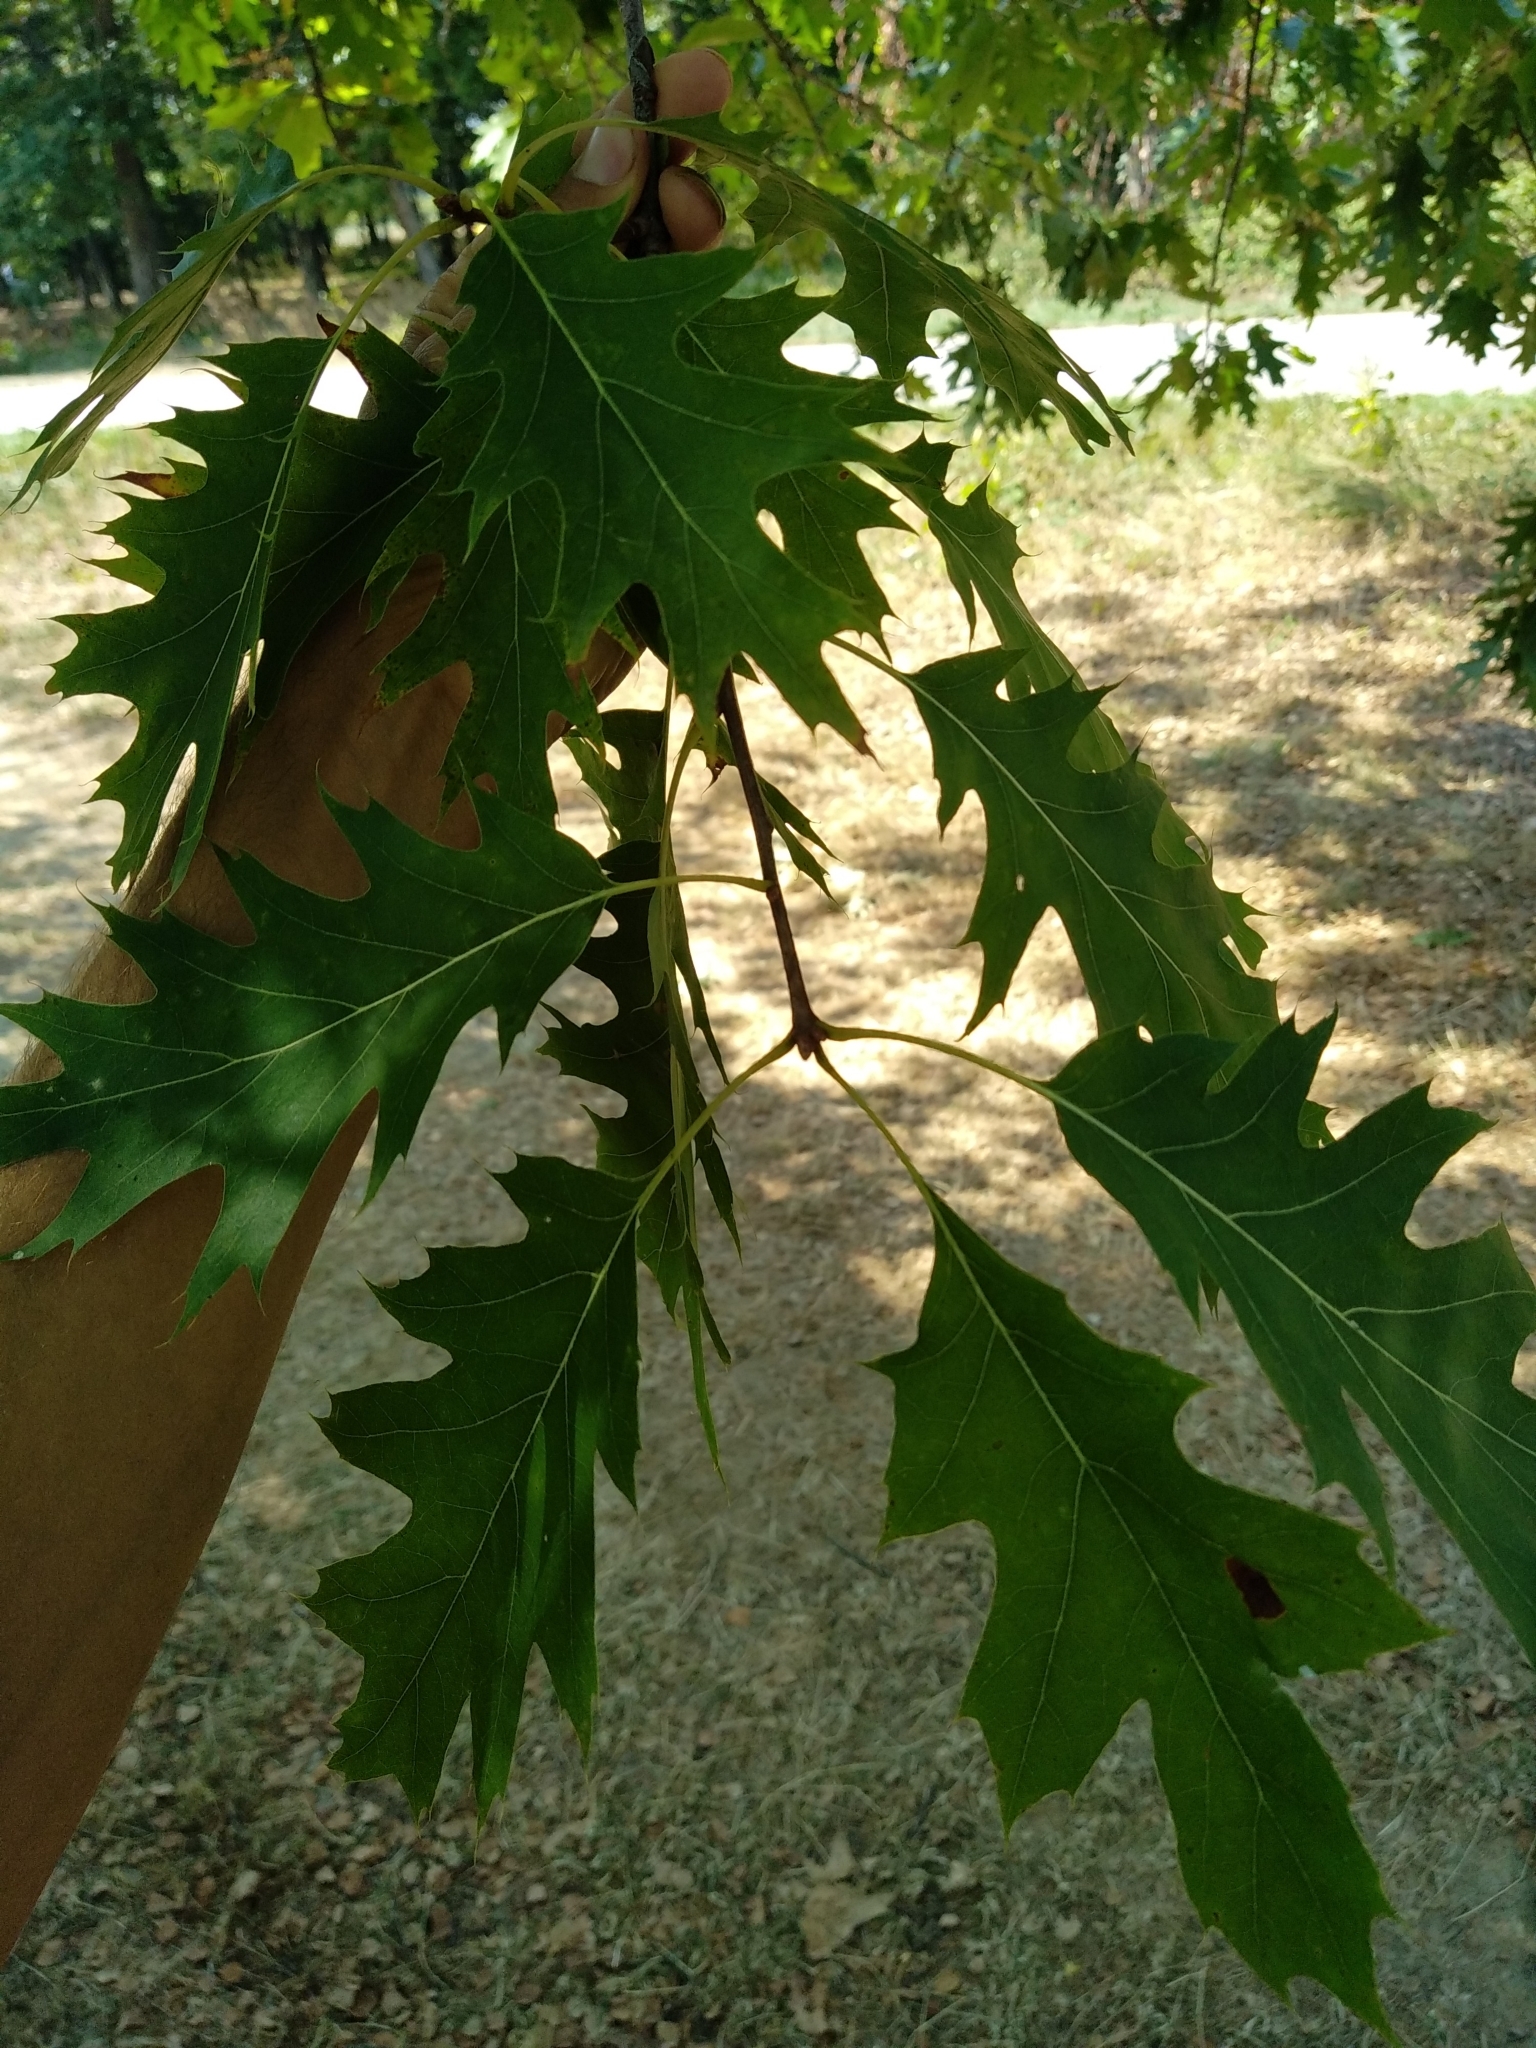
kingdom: Plantae
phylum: Tracheophyta
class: Magnoliopsida
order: Fagales
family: Fagaceae
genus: Quercus
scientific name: Quercus rubra
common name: Red oak
